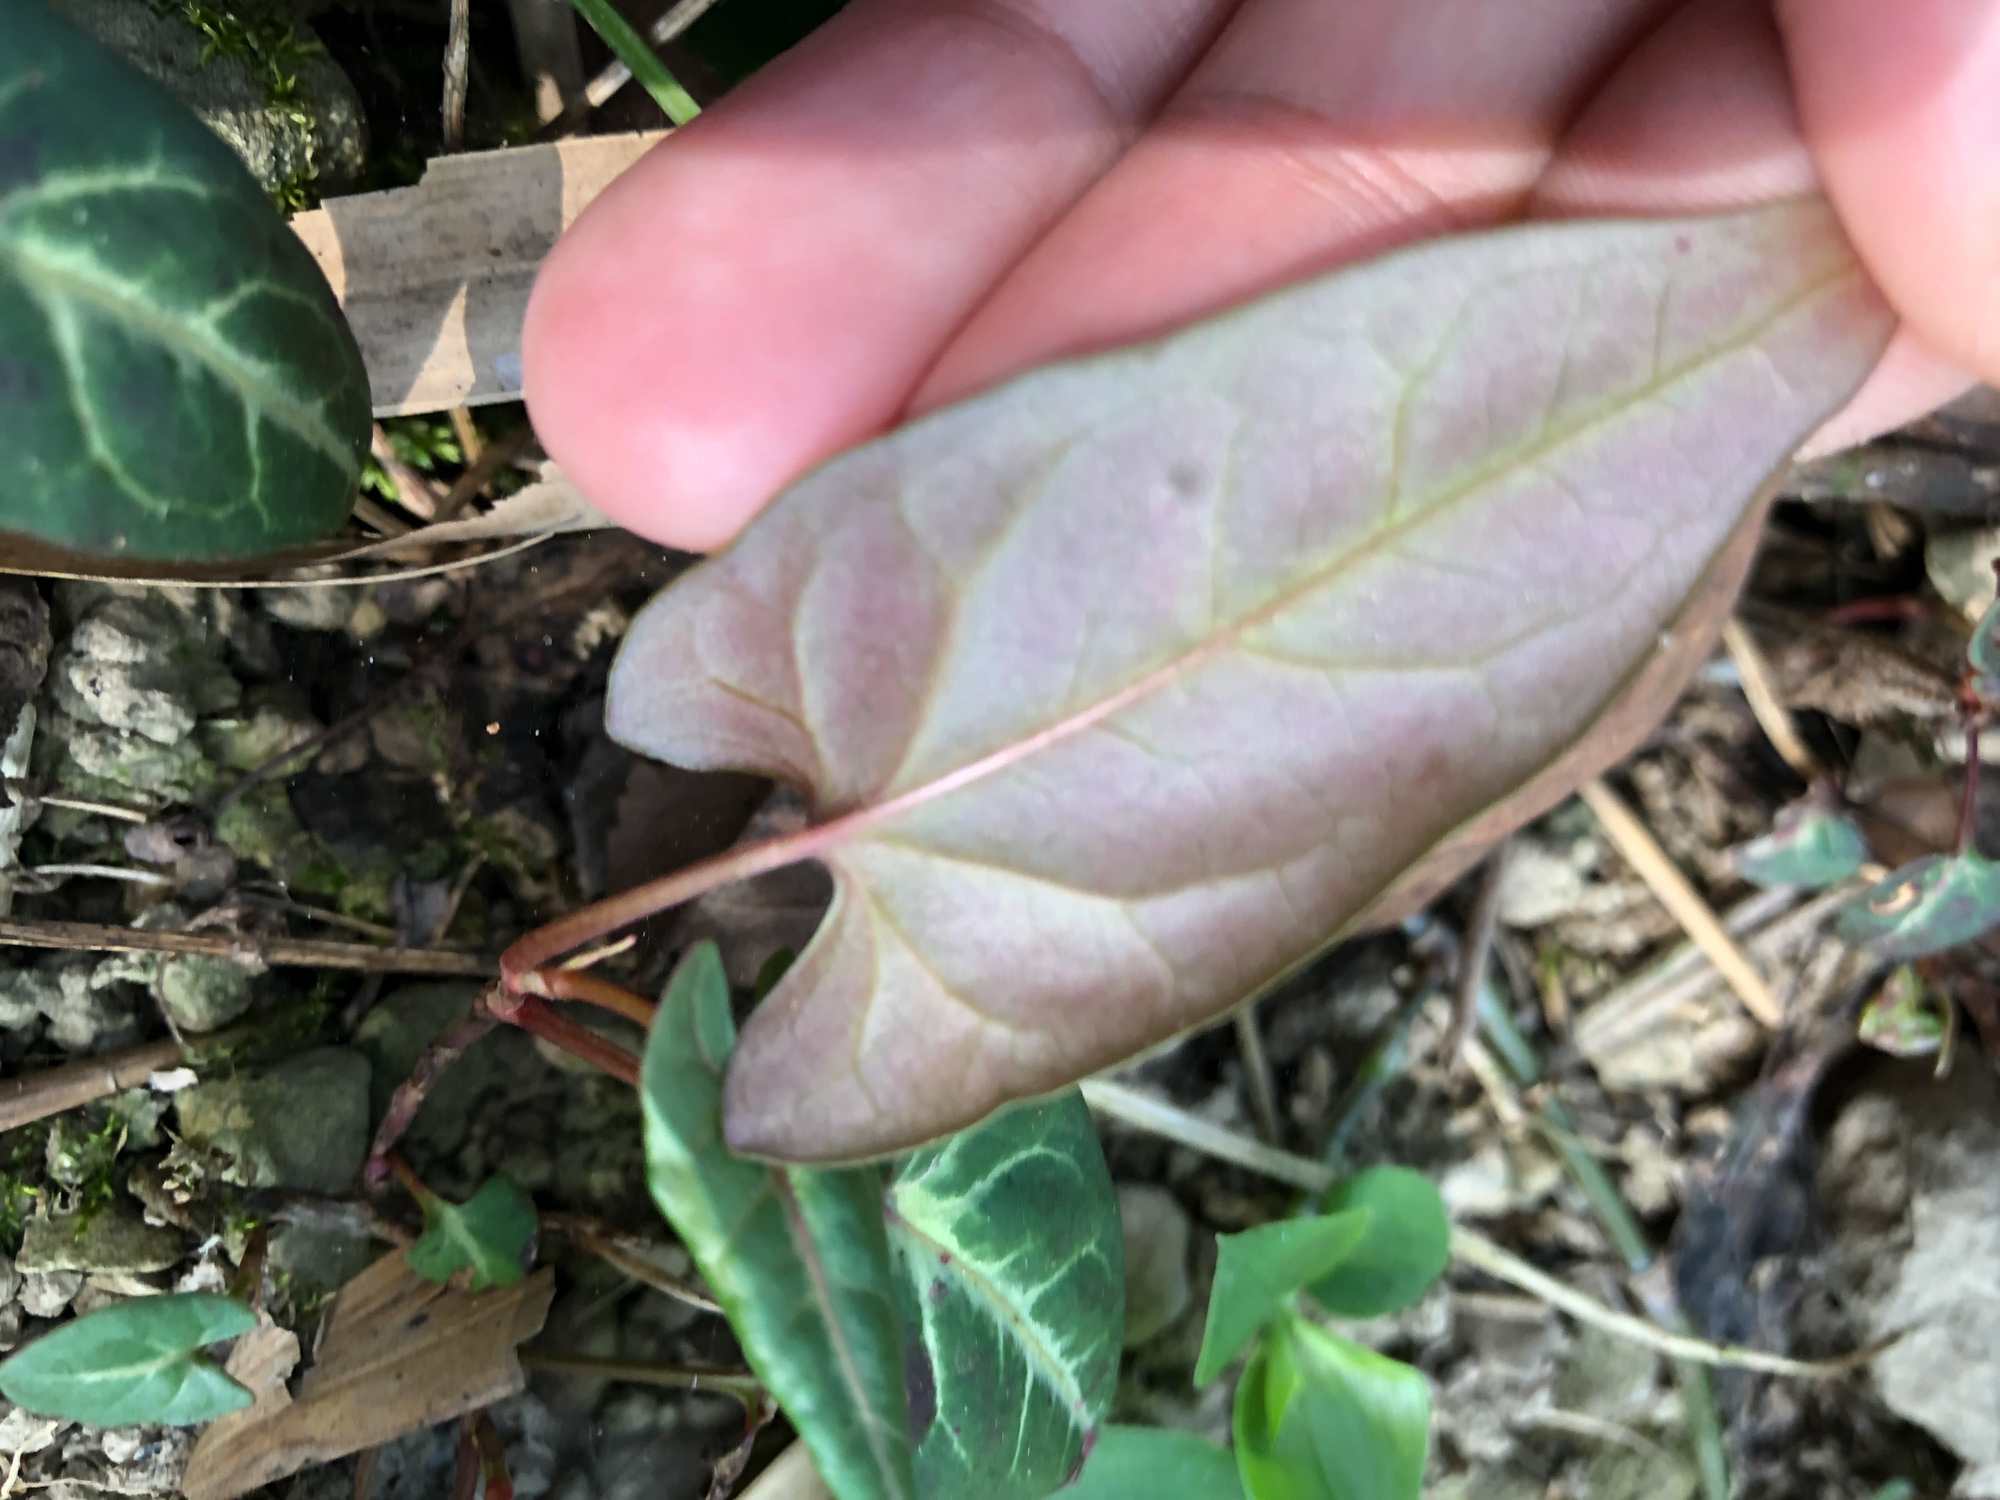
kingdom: Plantae
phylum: Tracheophyta
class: Magnoliopsida
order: Caryophyllales
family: Polygonaceae
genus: Reynoutria
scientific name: Reynoutria multiflora
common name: Chinese fleeceflower
